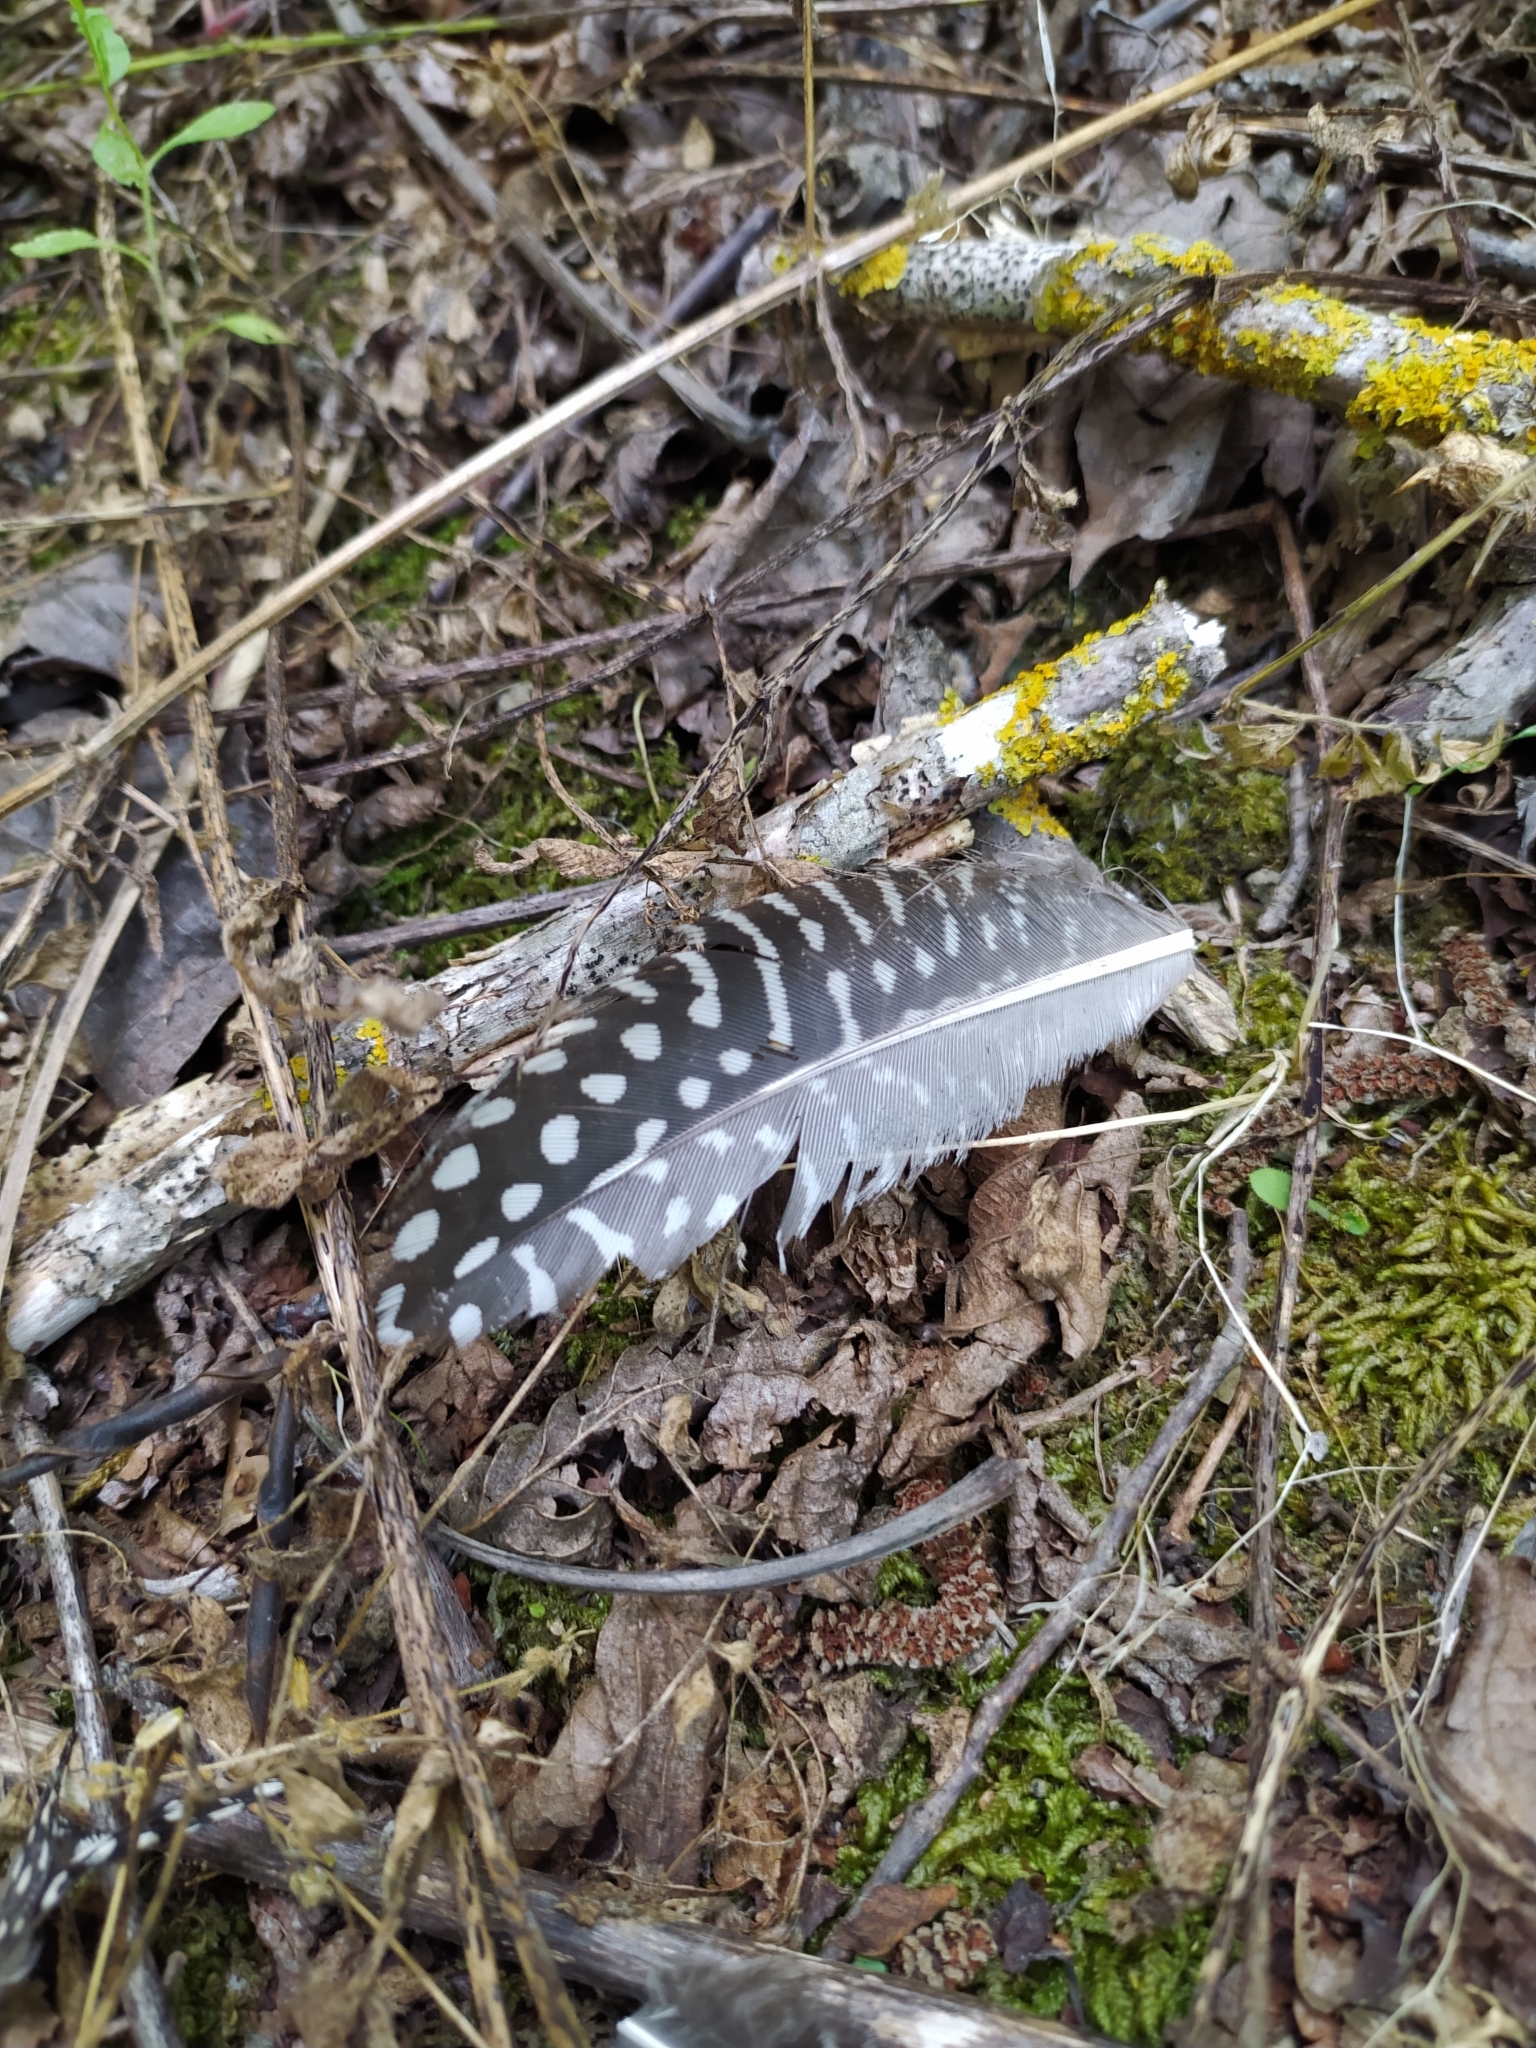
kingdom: Animalia
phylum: Chordata
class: Aves
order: Galliformes
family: Numididae
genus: Numida
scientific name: Numida meleagris
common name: Helmeted guineafowl
